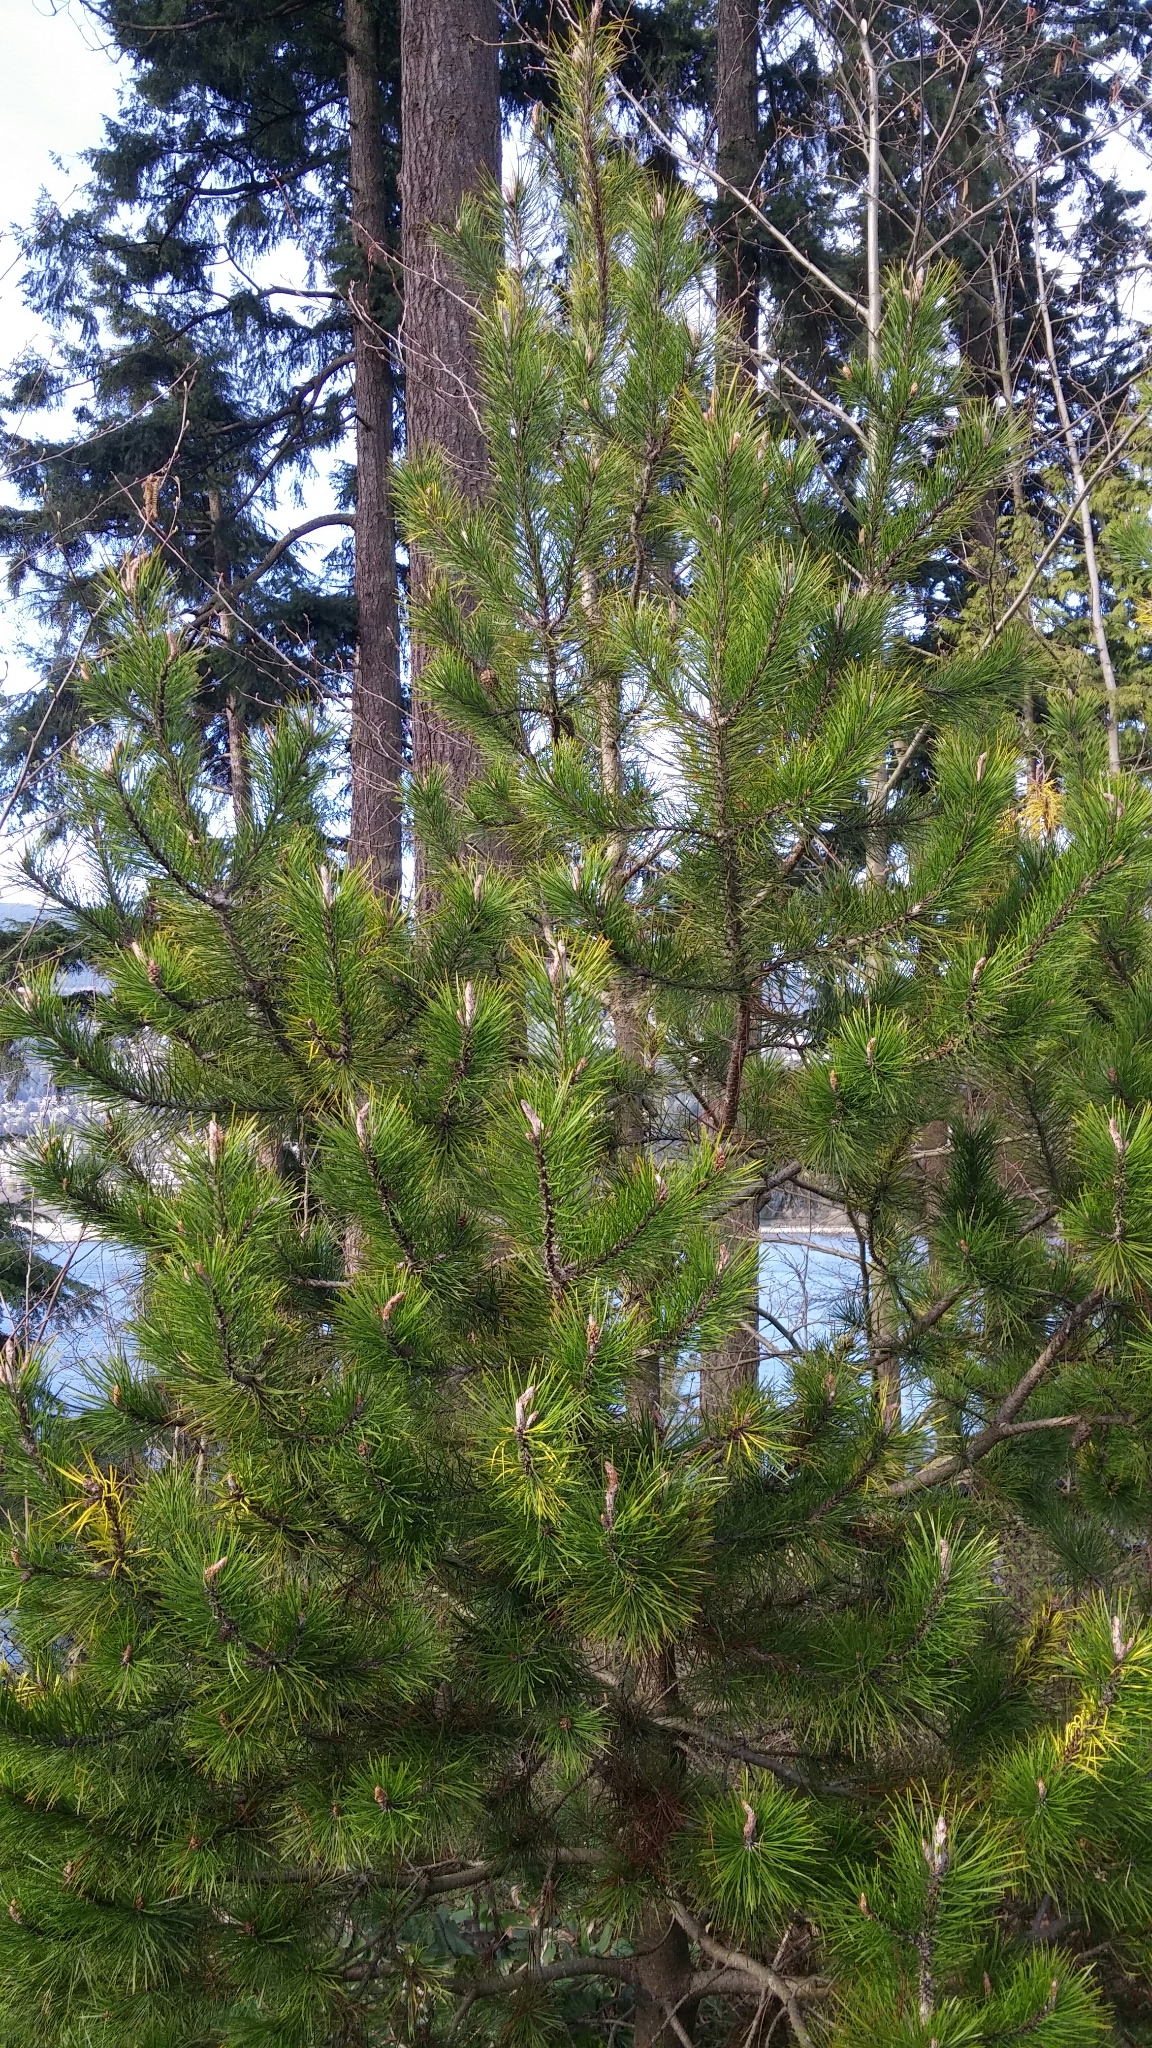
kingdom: Plantae
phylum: Tracheophyta
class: Pinopsida
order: Pinales
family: Pinaceae
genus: Pinus
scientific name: Pinus contorta
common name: Lodgepole pine
